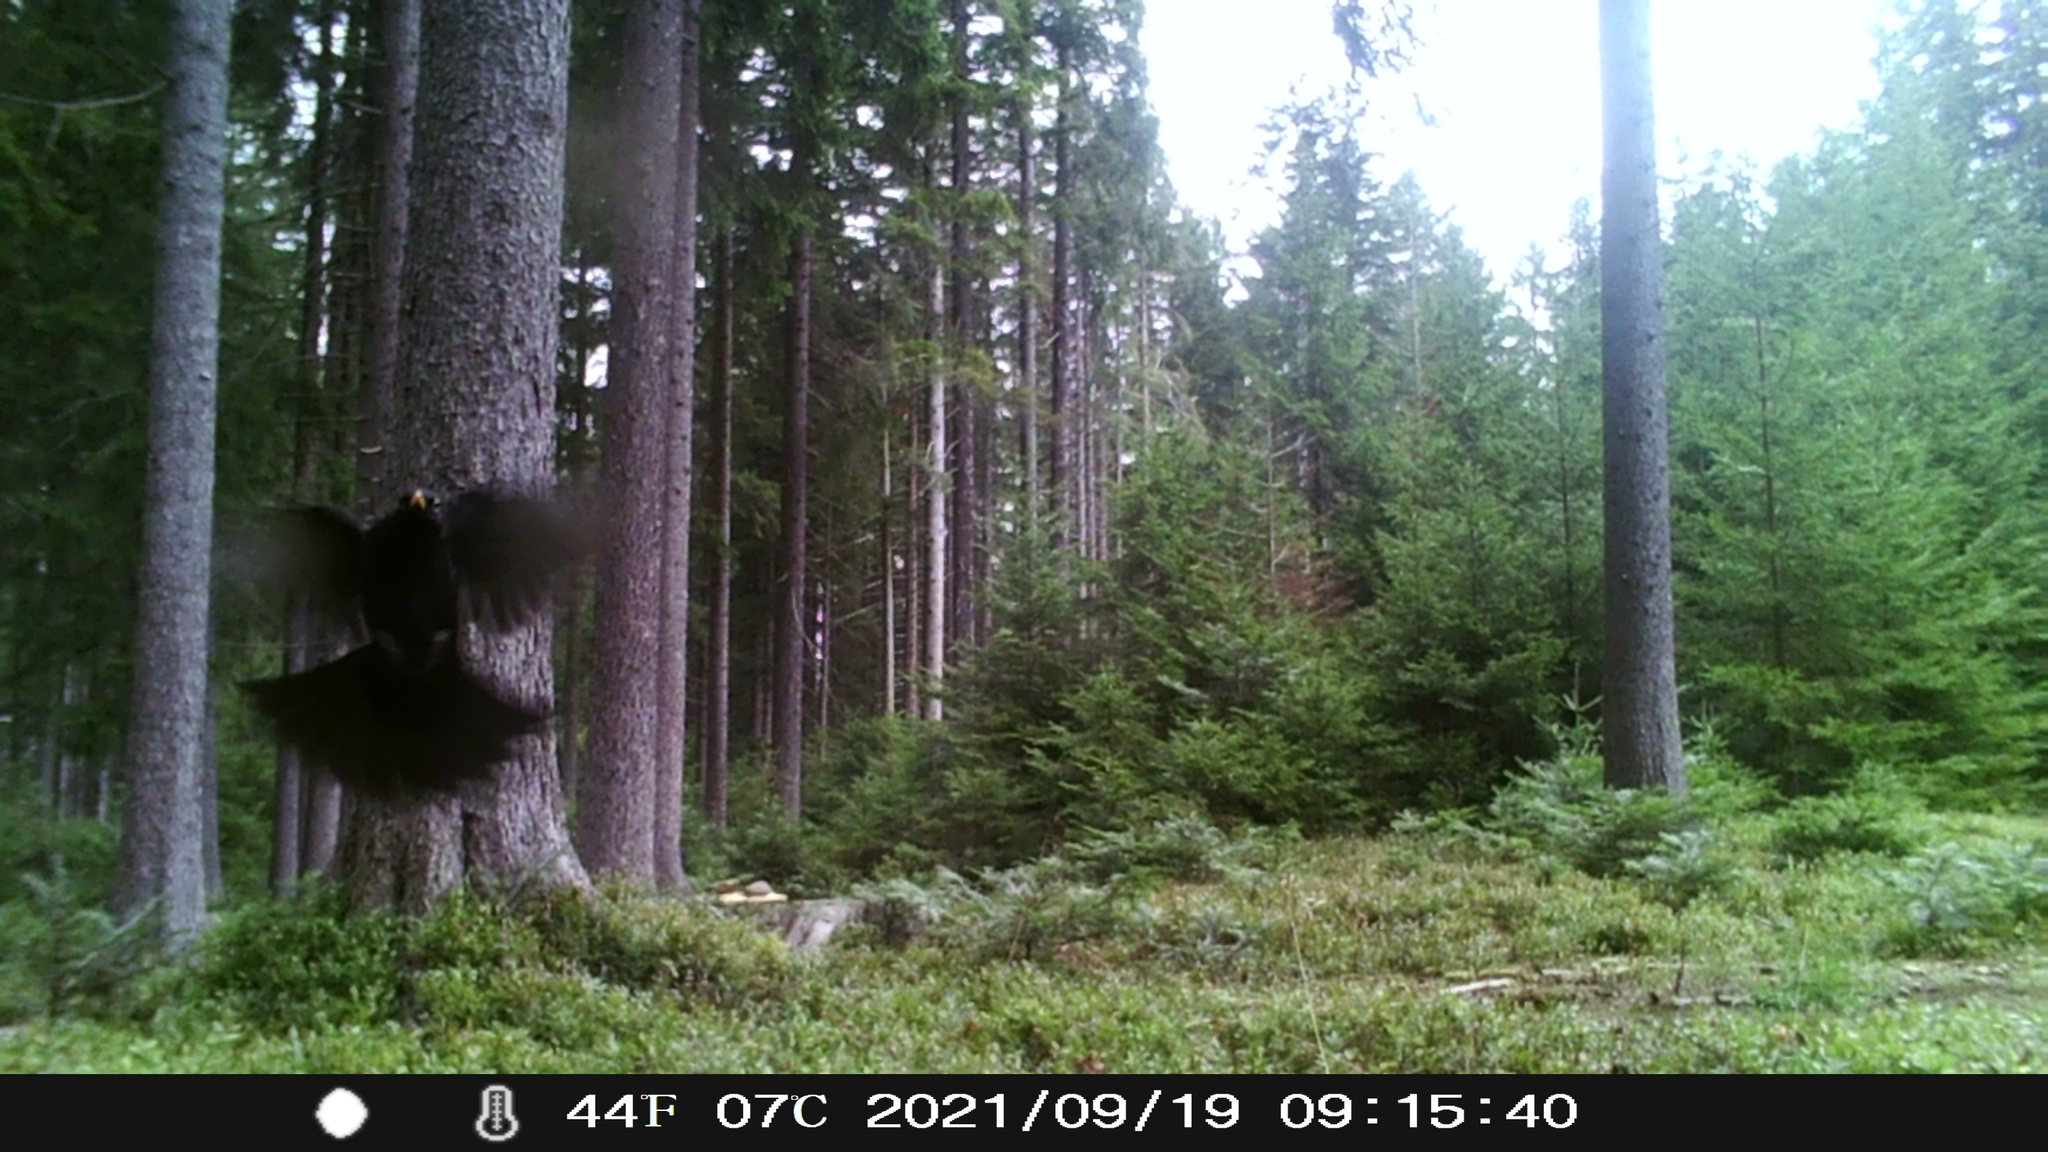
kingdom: Animalia
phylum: Chordata
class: Aves
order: Passeriformes
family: Turdidae
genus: Turdus
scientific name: Turdus merula
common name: Common blackbird
